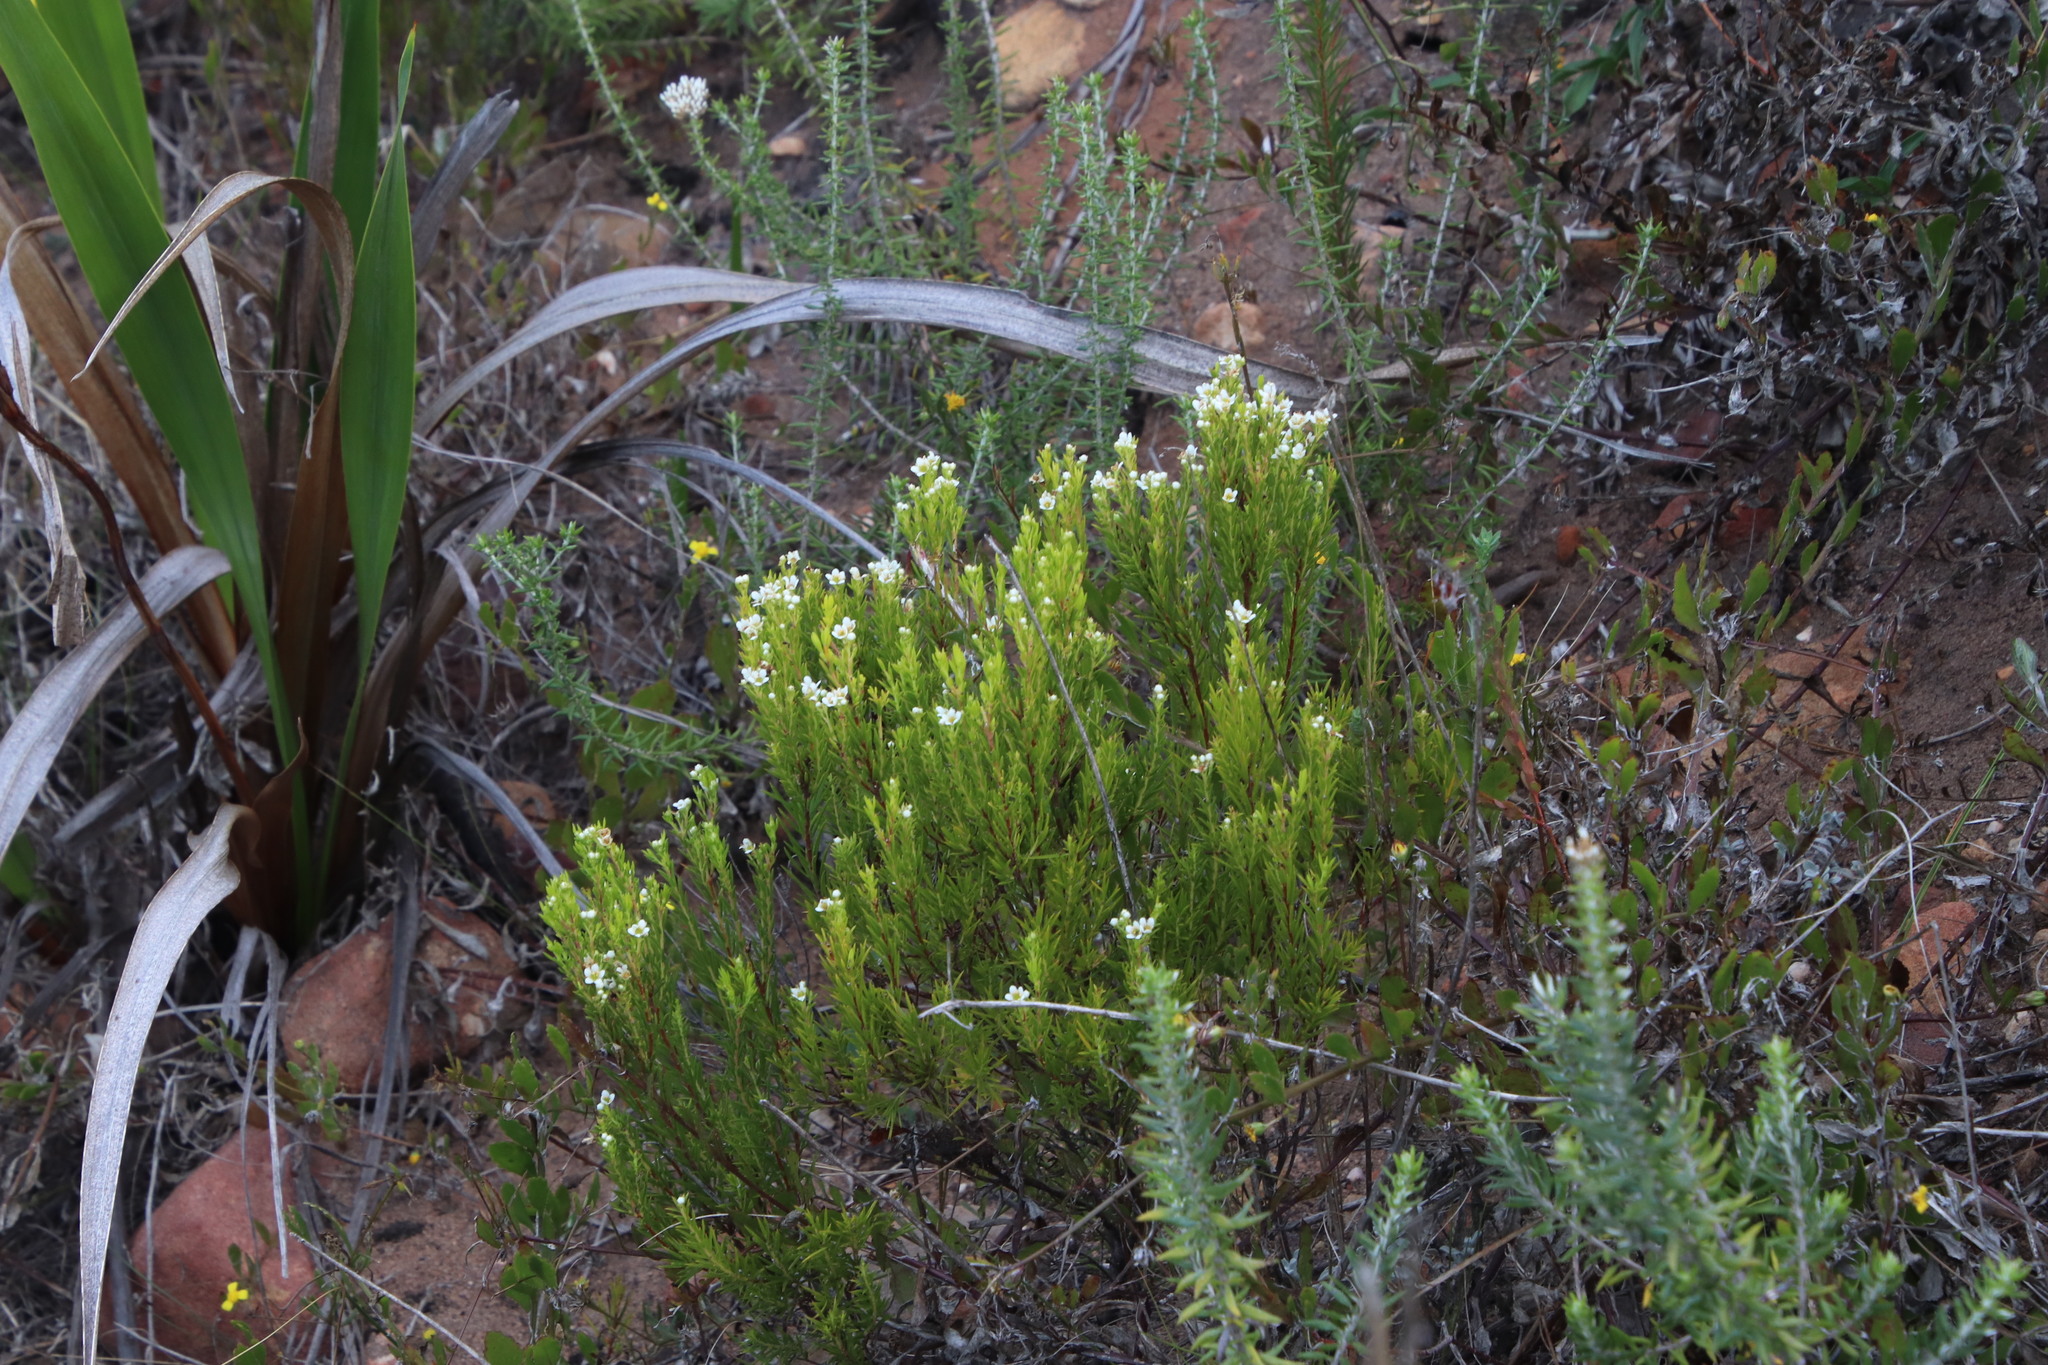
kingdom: Plantae
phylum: Tracheophyta
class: Magnoliopsida
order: Sapindales
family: Rutaceae
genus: Diosma
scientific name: Diosma hirsuta
